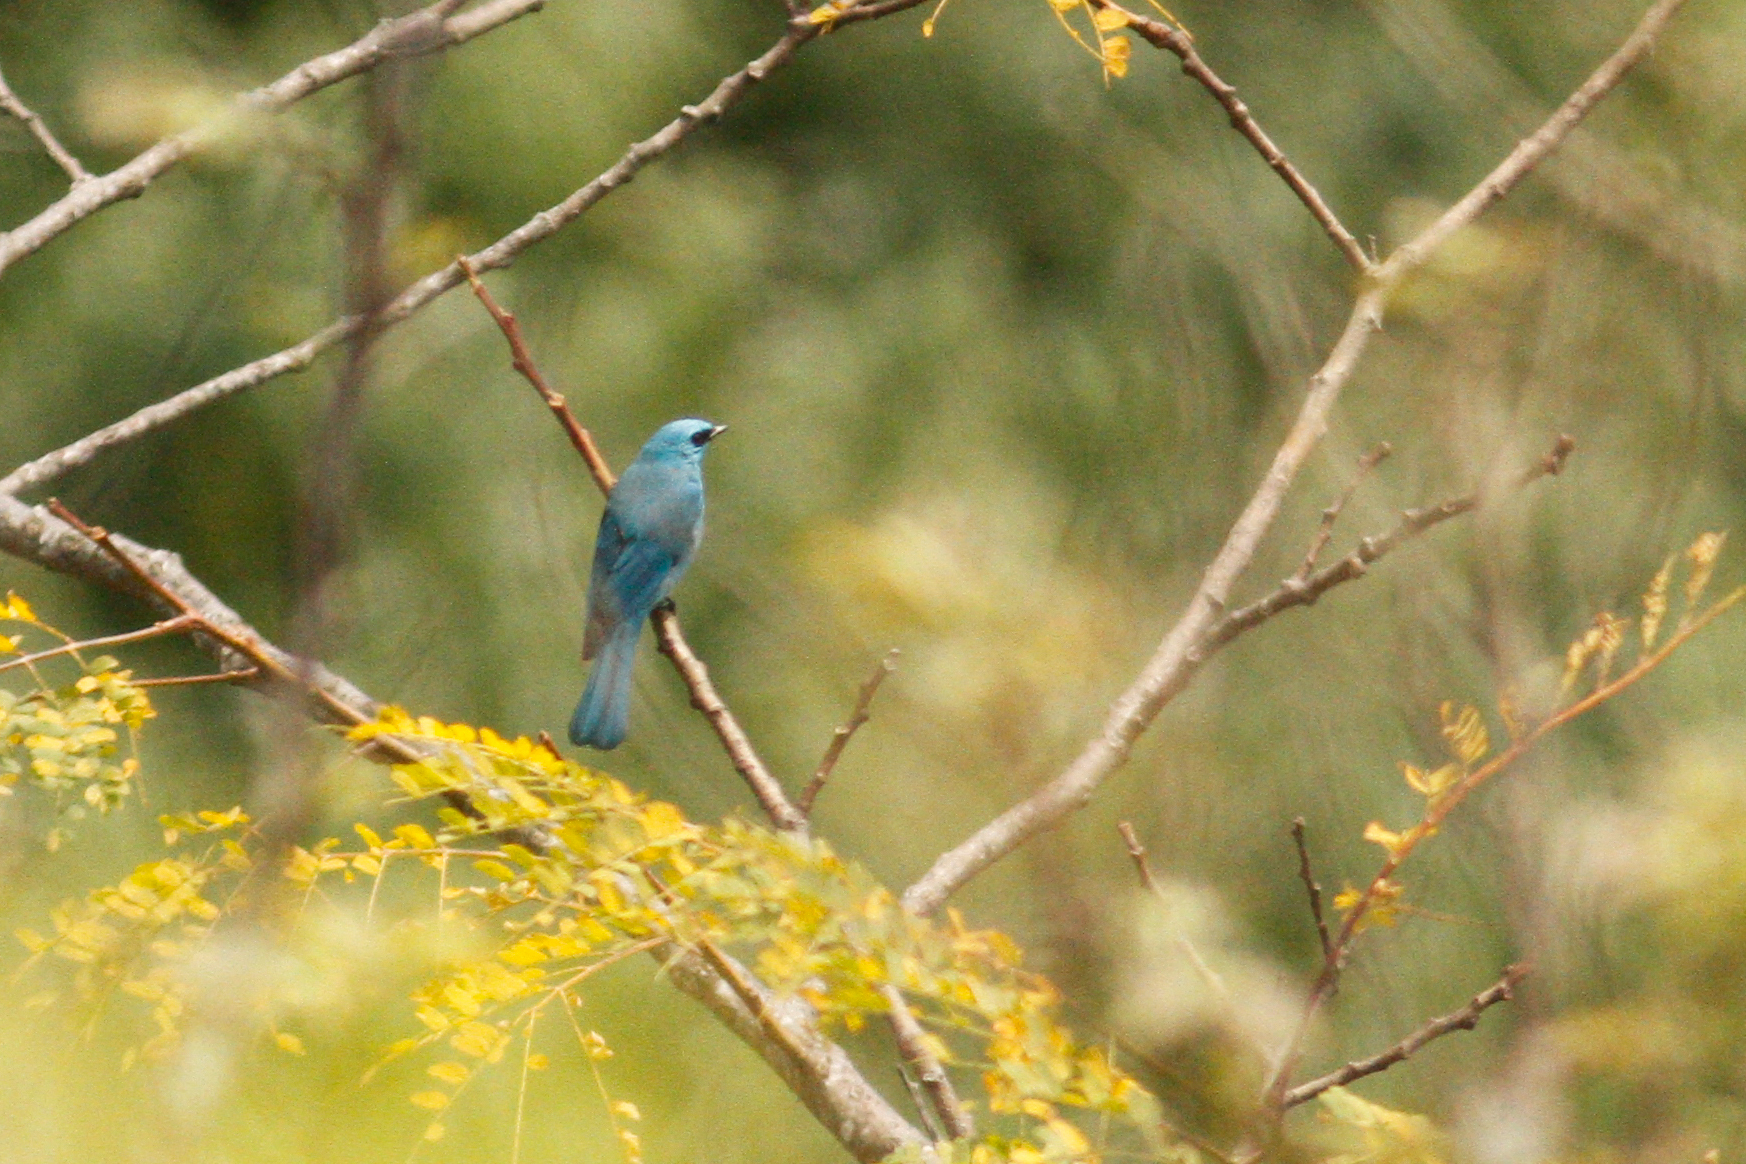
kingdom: Animalia
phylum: Chordata
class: Aves
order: Passeriformes
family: Muscicapidae
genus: Eumyias
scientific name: Eumyias thalassinus
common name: Verditer flycatcher
